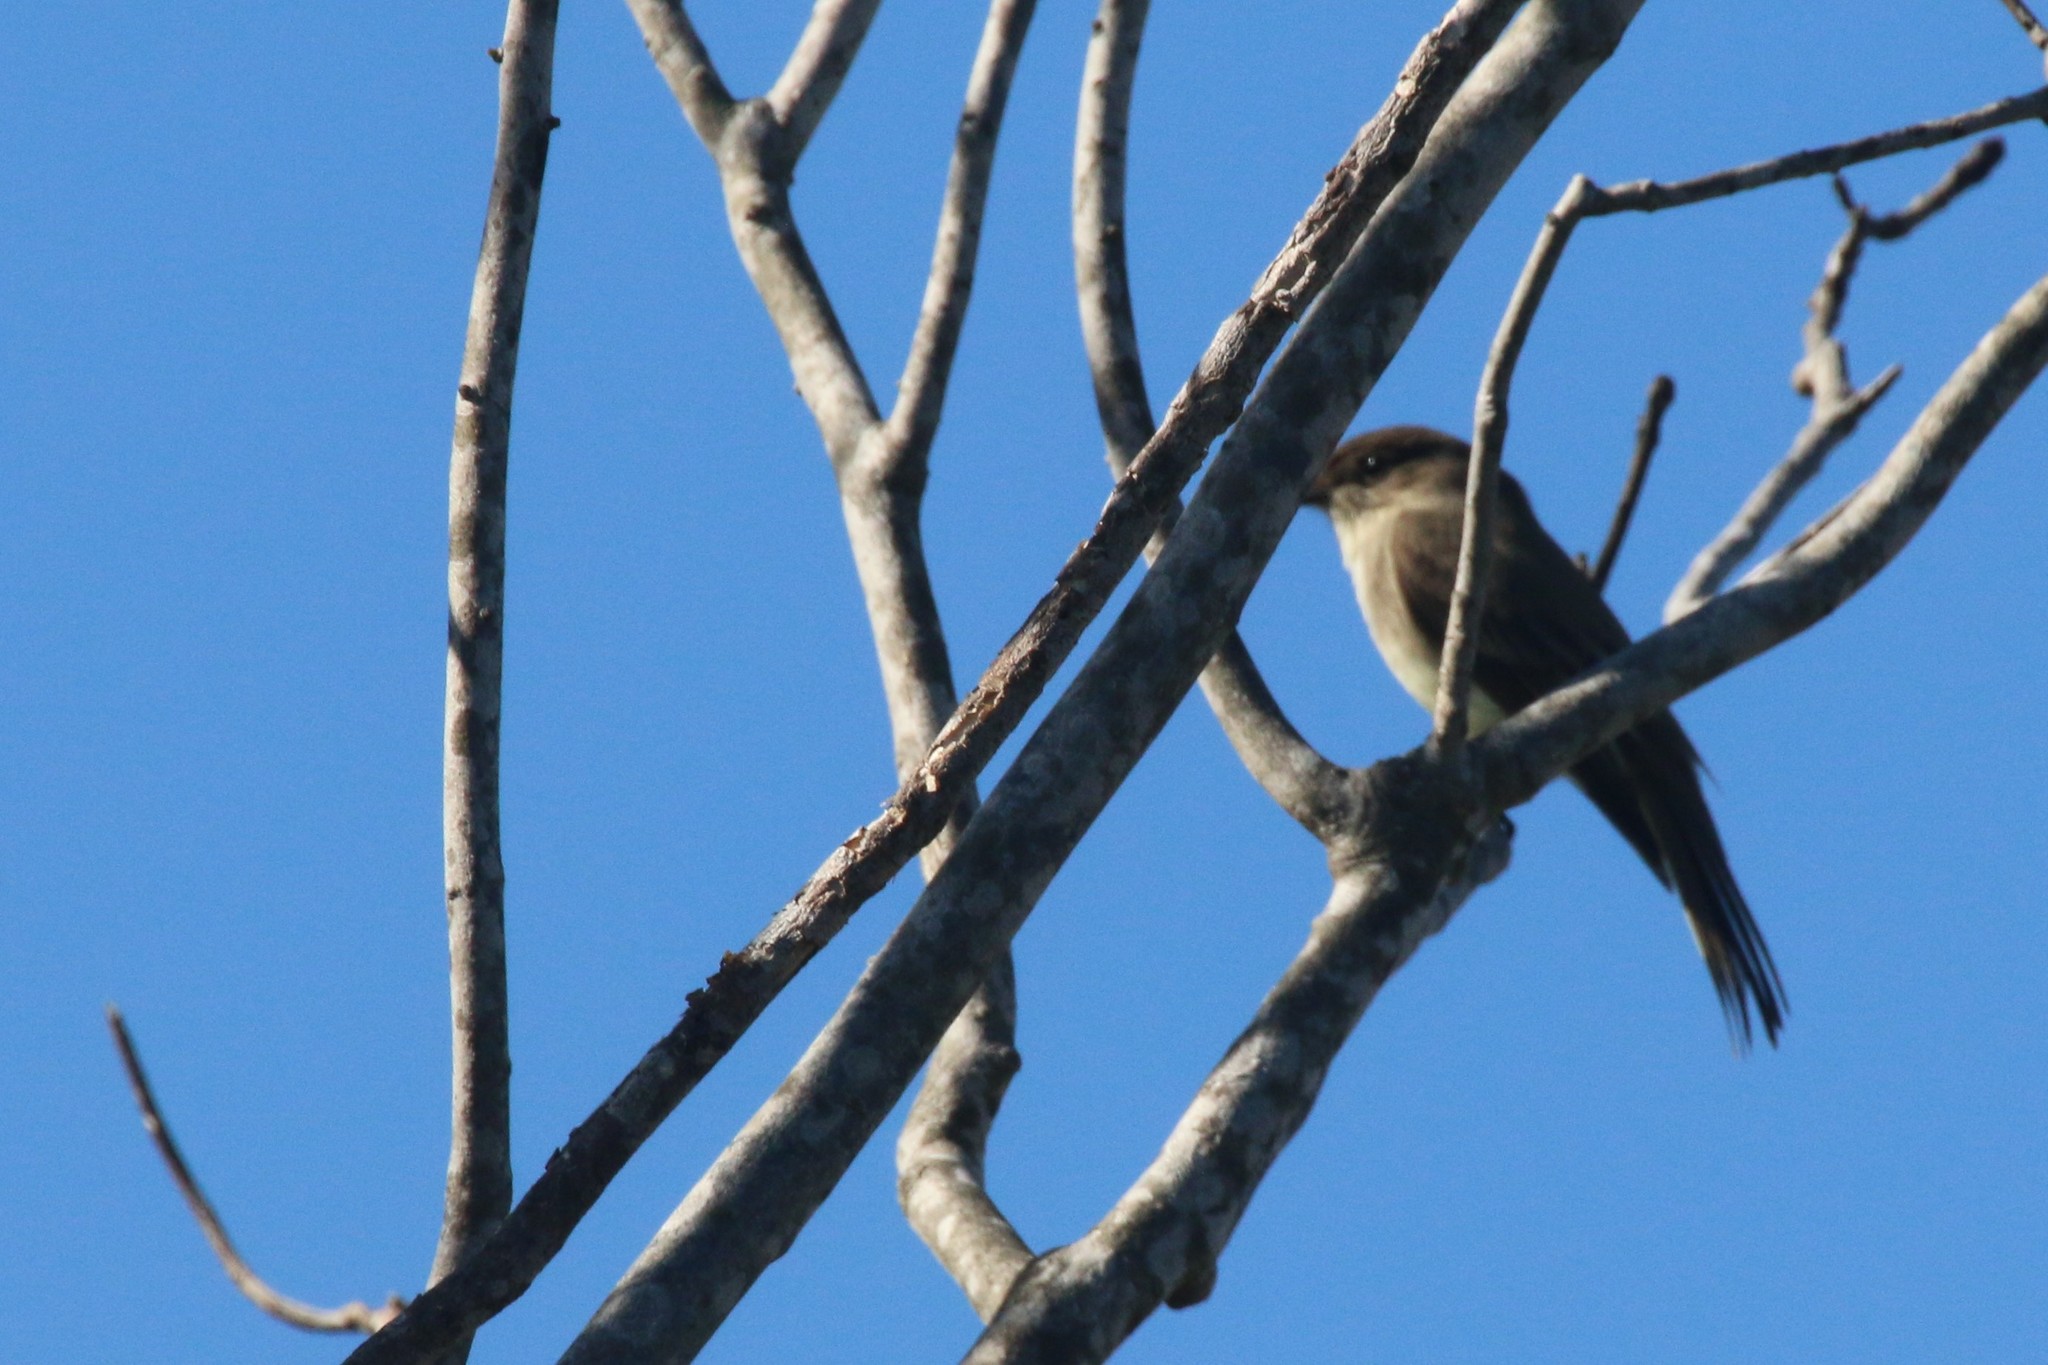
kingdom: Animalia
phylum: Chordata
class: Aves
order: Passeriformes
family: Tyrannidae
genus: Sayornis
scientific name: Sayornis phoebe
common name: Eastern phoebe
